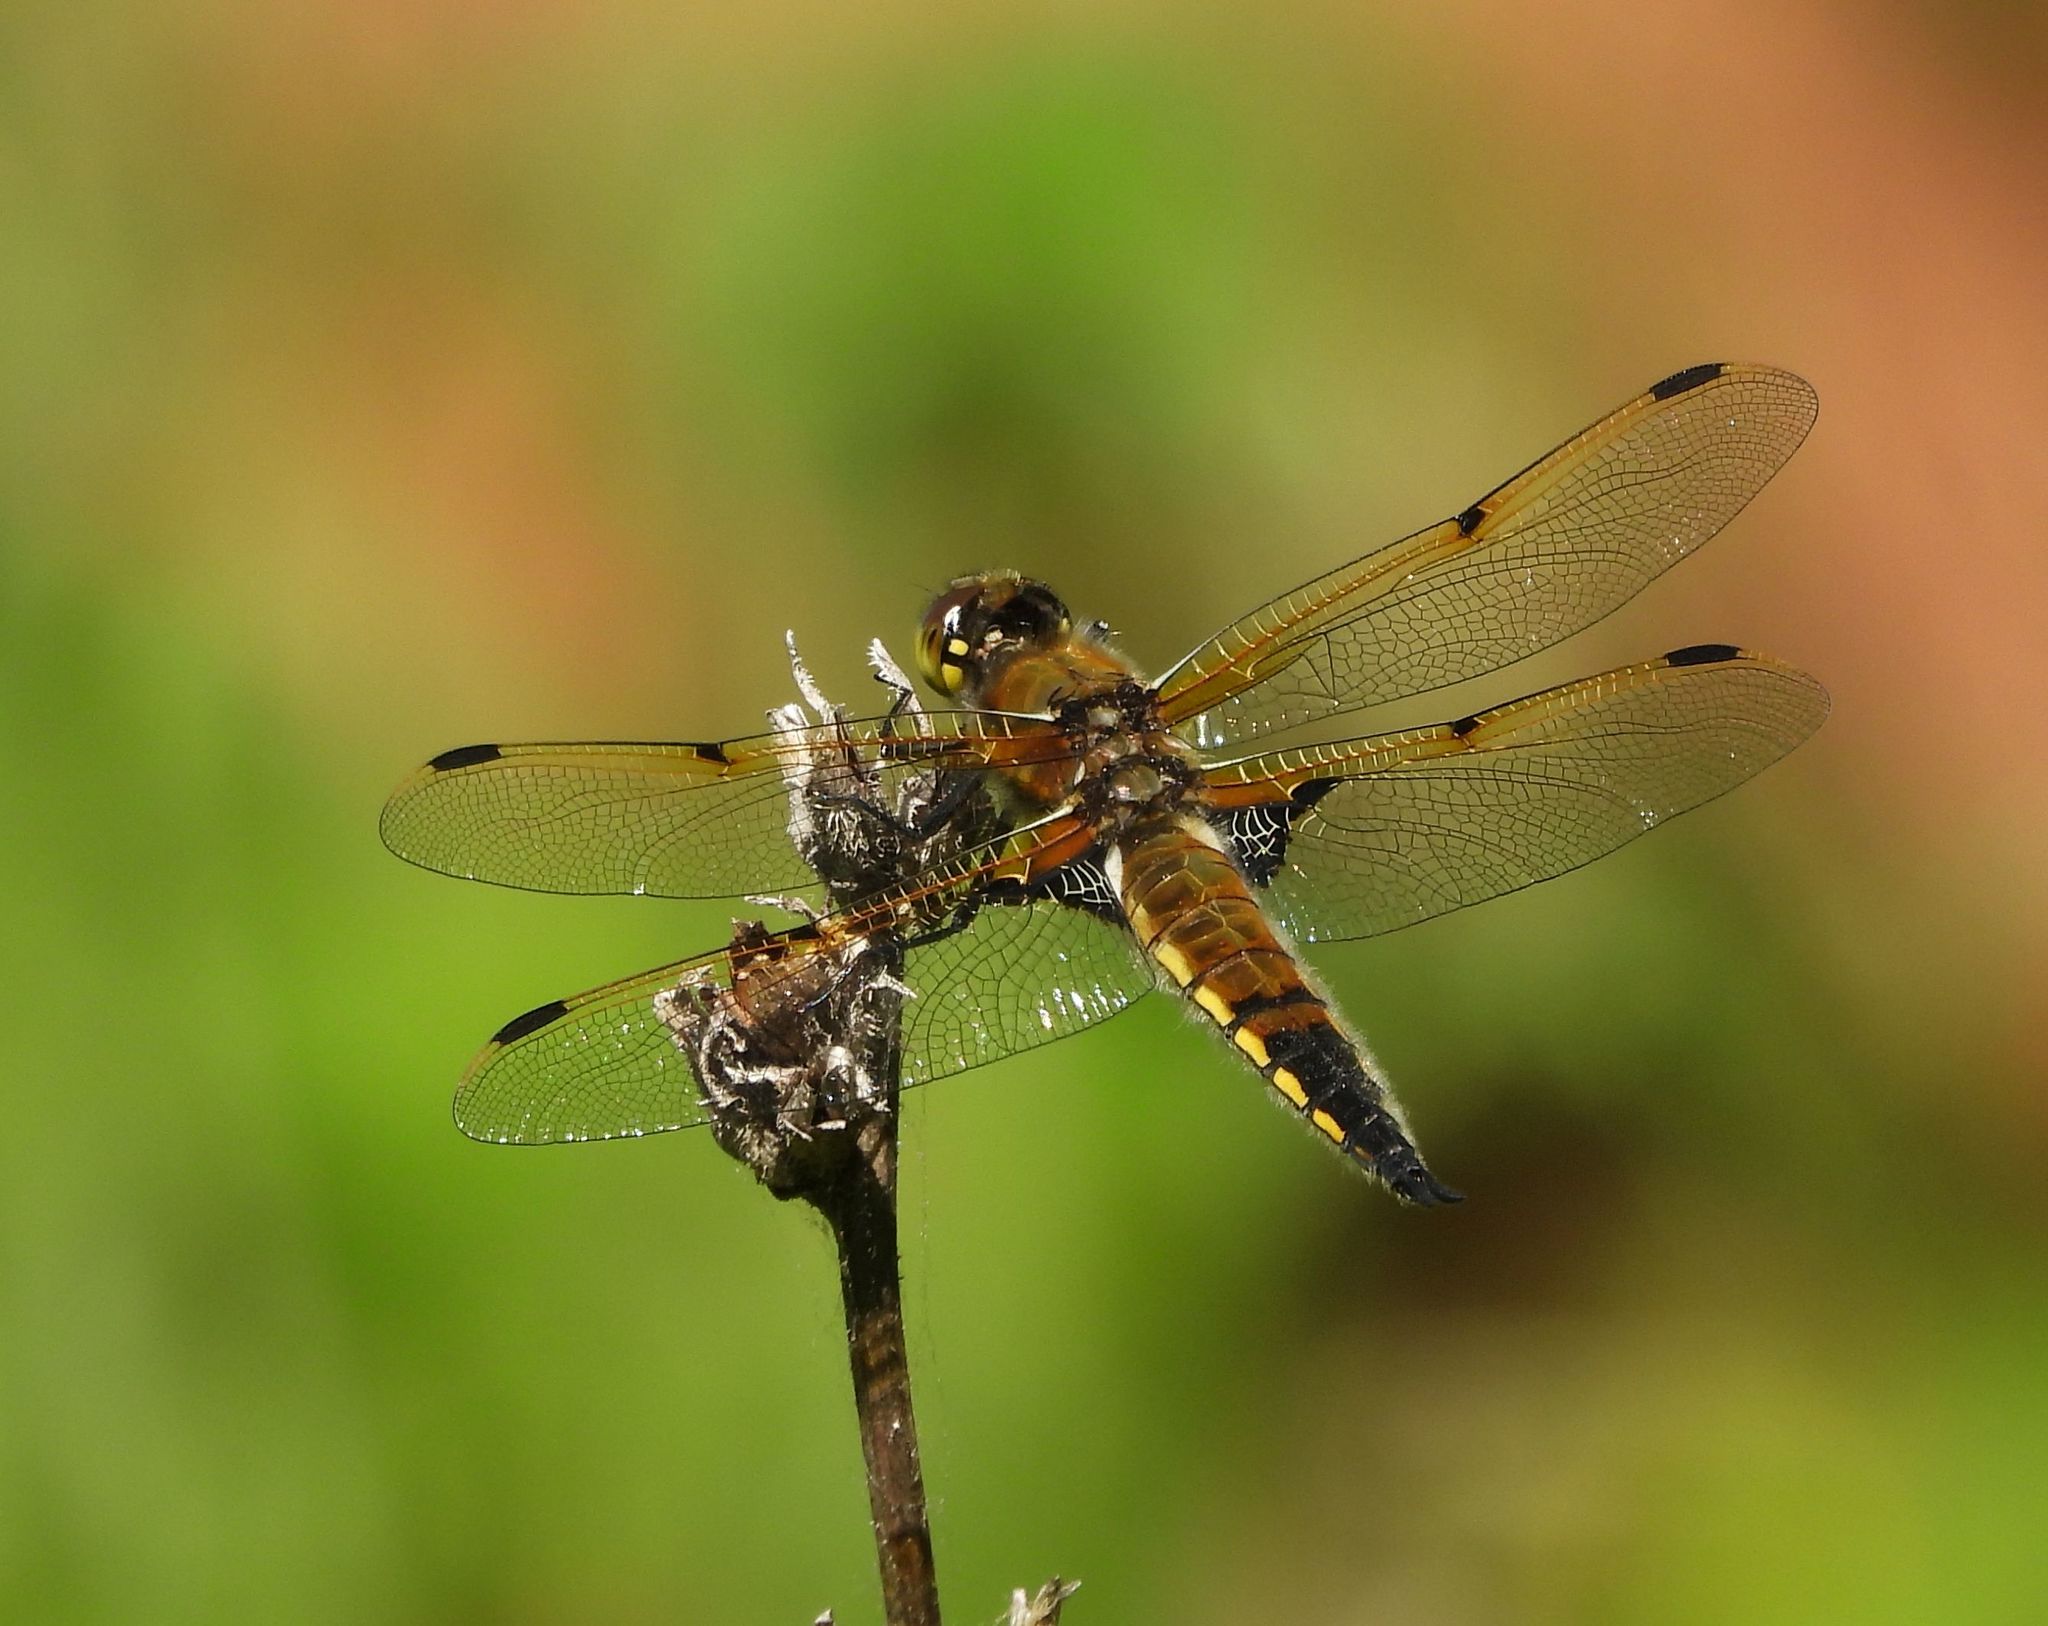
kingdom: Animalia
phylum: Arthropoda
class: Insecta
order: Odonata
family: Libellulidae
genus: Libellula
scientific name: Libellula quadrimaculata
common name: Four-spotted chaser
